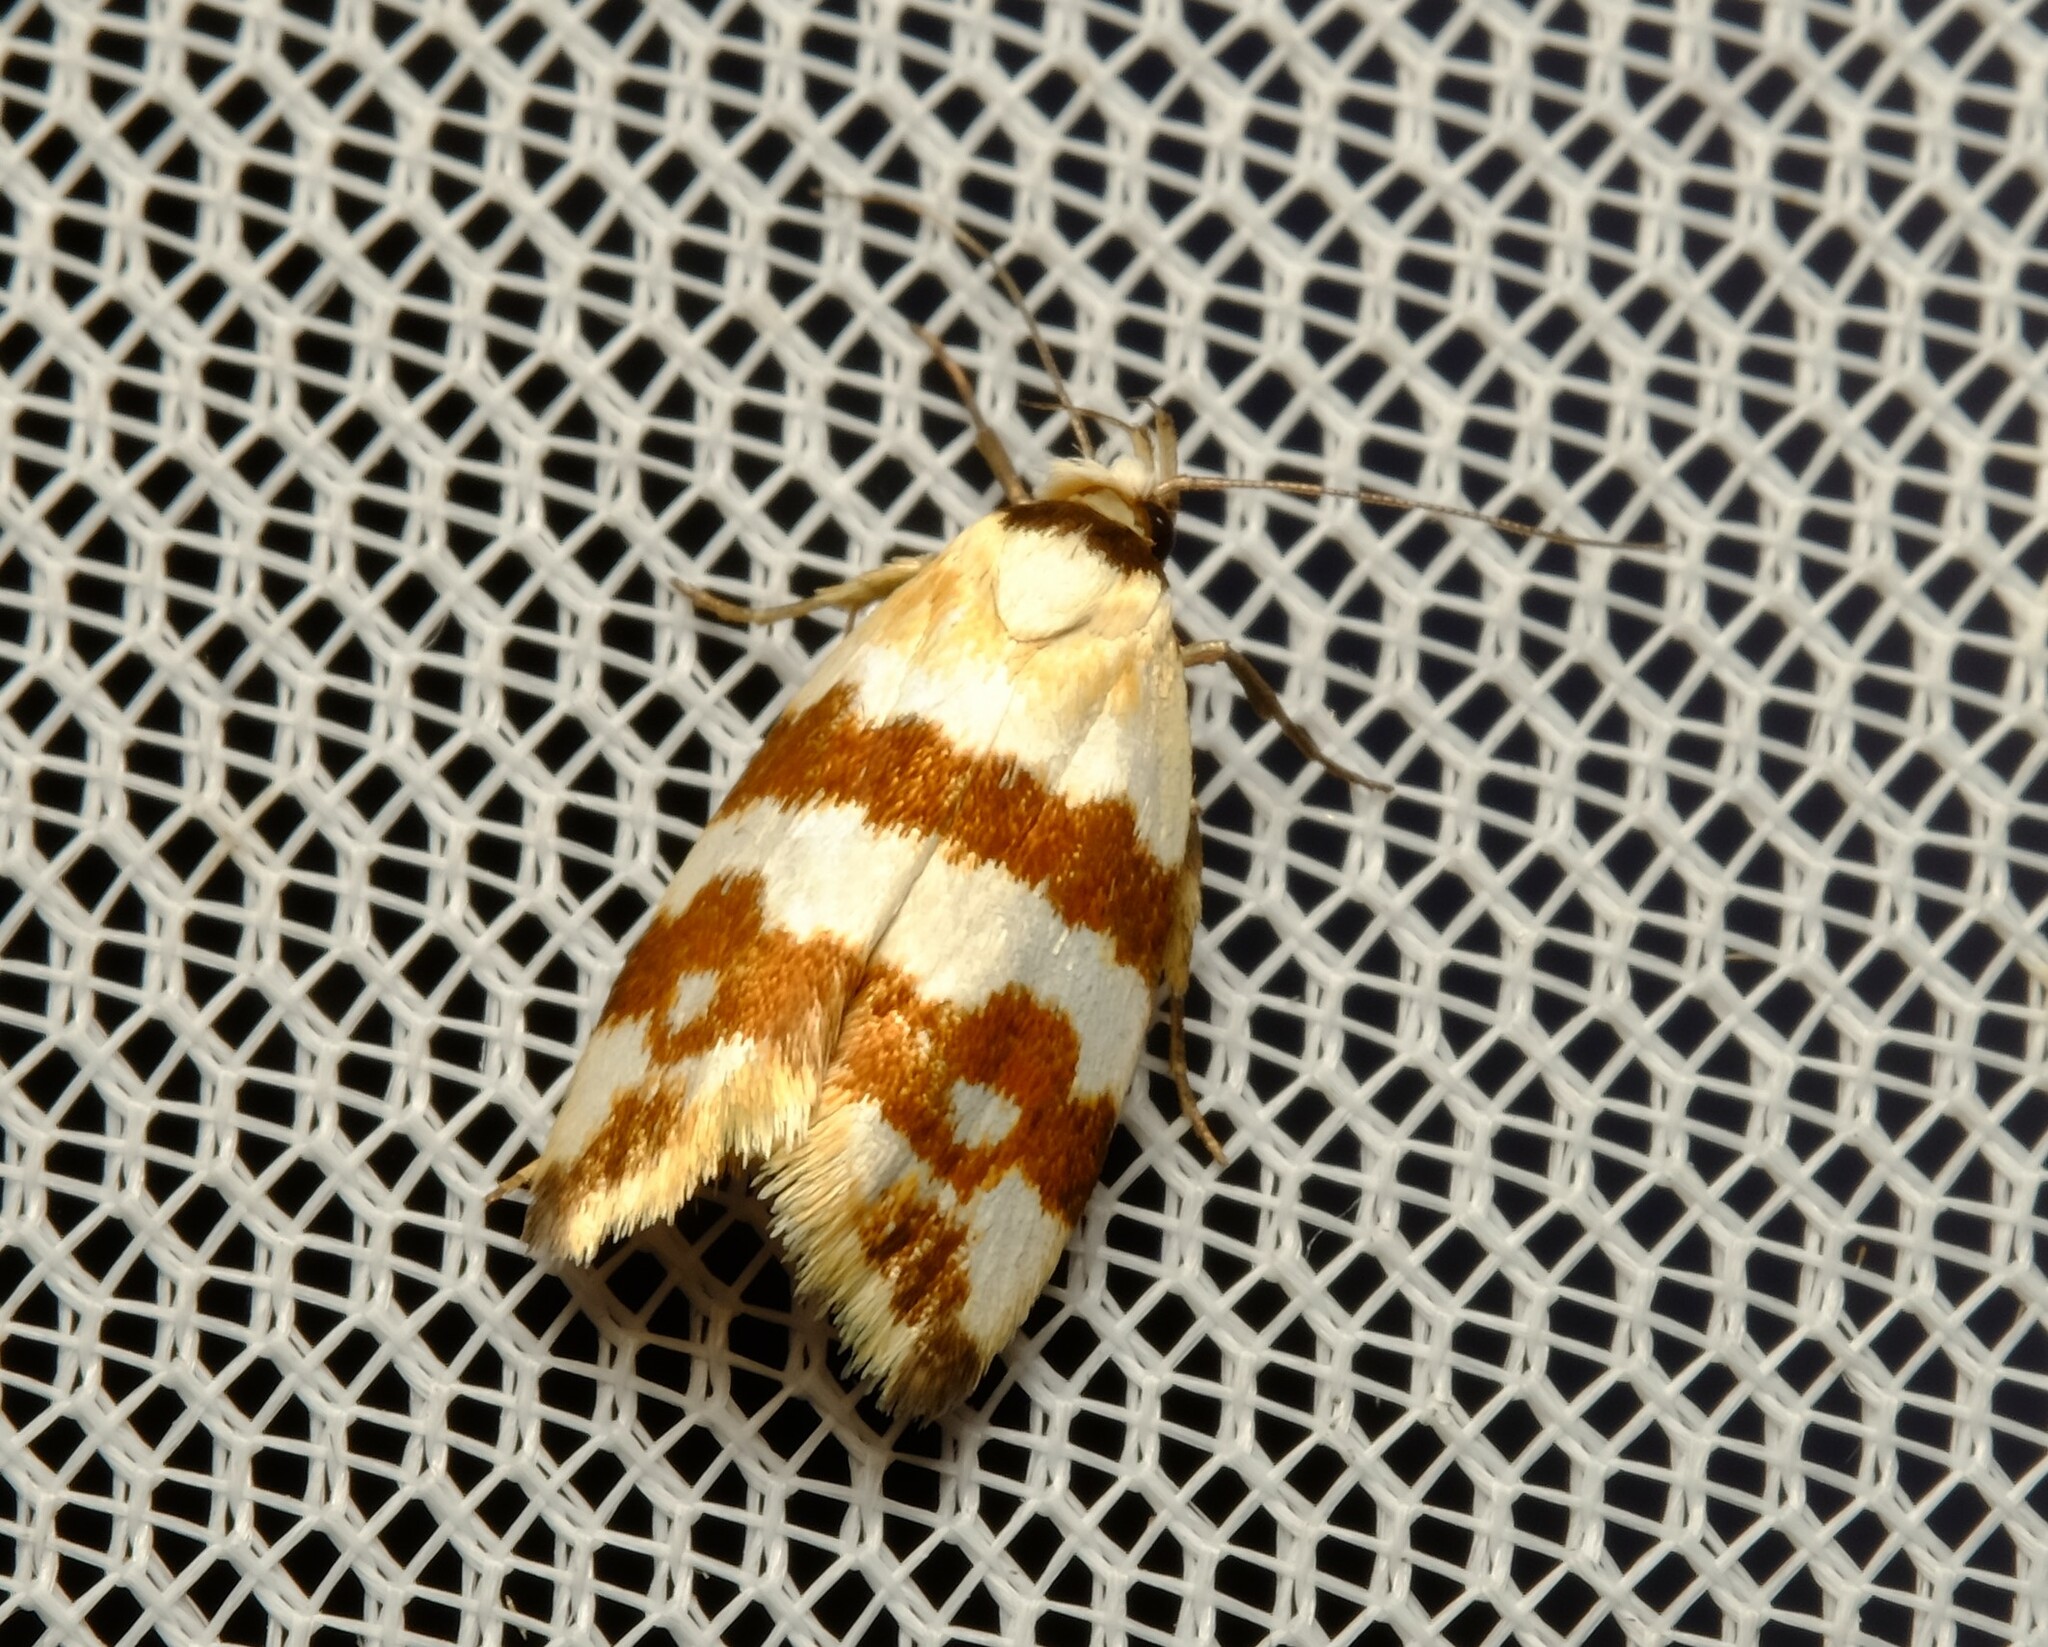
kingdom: Animalia
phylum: Arthropoda
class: Insecta
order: Lepidoptera
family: Oecophoridae
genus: Tanyzancla
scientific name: Tanyzancla atricollis
